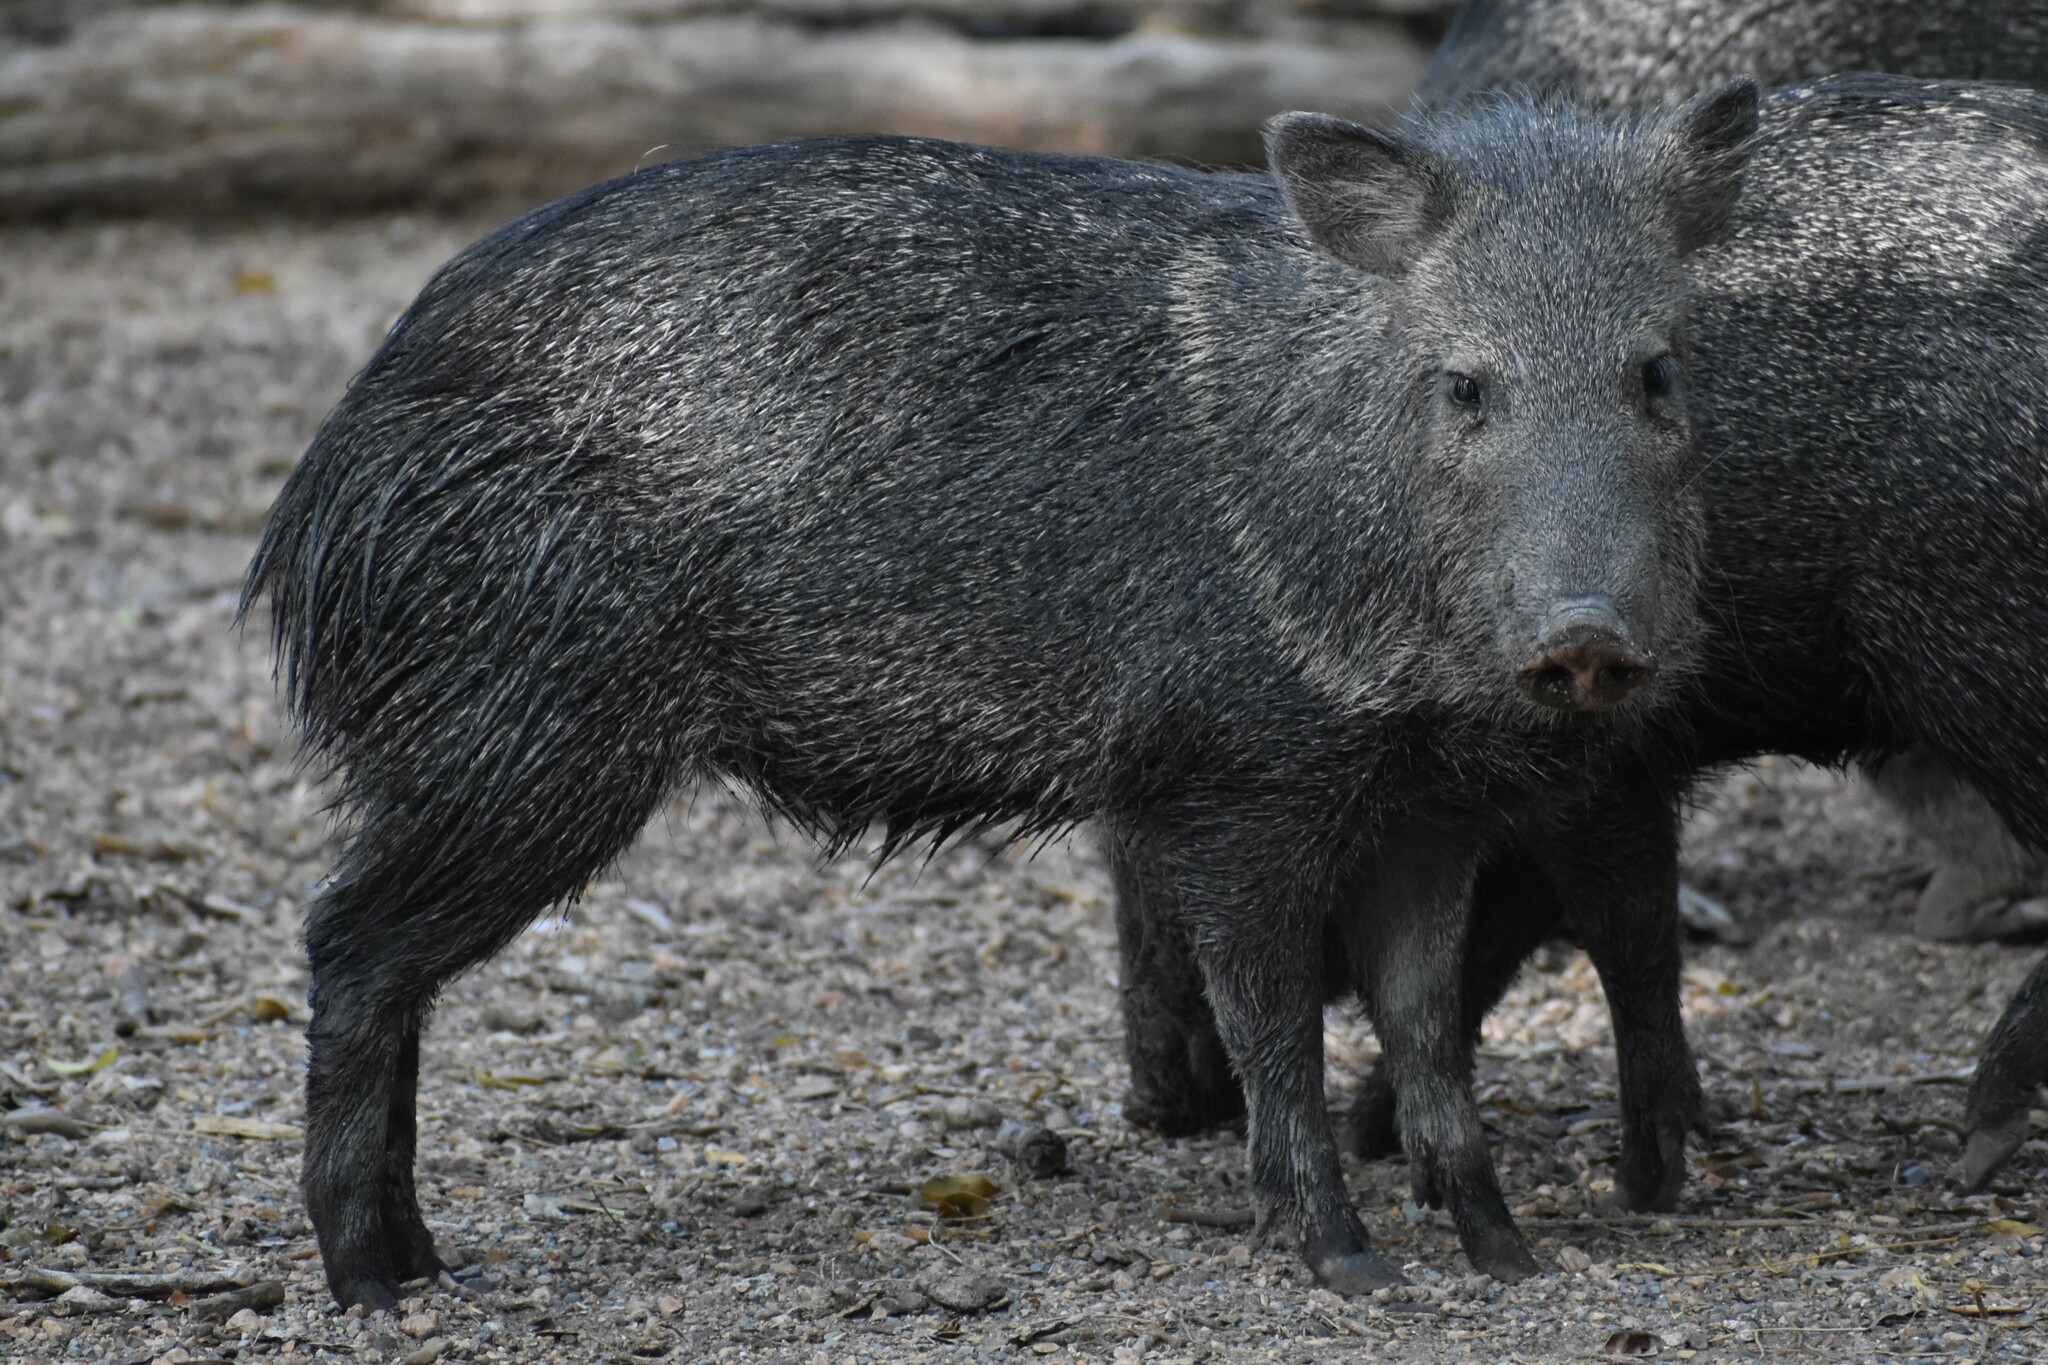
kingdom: Animalia
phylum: Chordata
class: Mammalia
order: Artiodactyla
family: Tayassuidae
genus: Pecari
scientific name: Pecari tajacu
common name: Collared peccary
